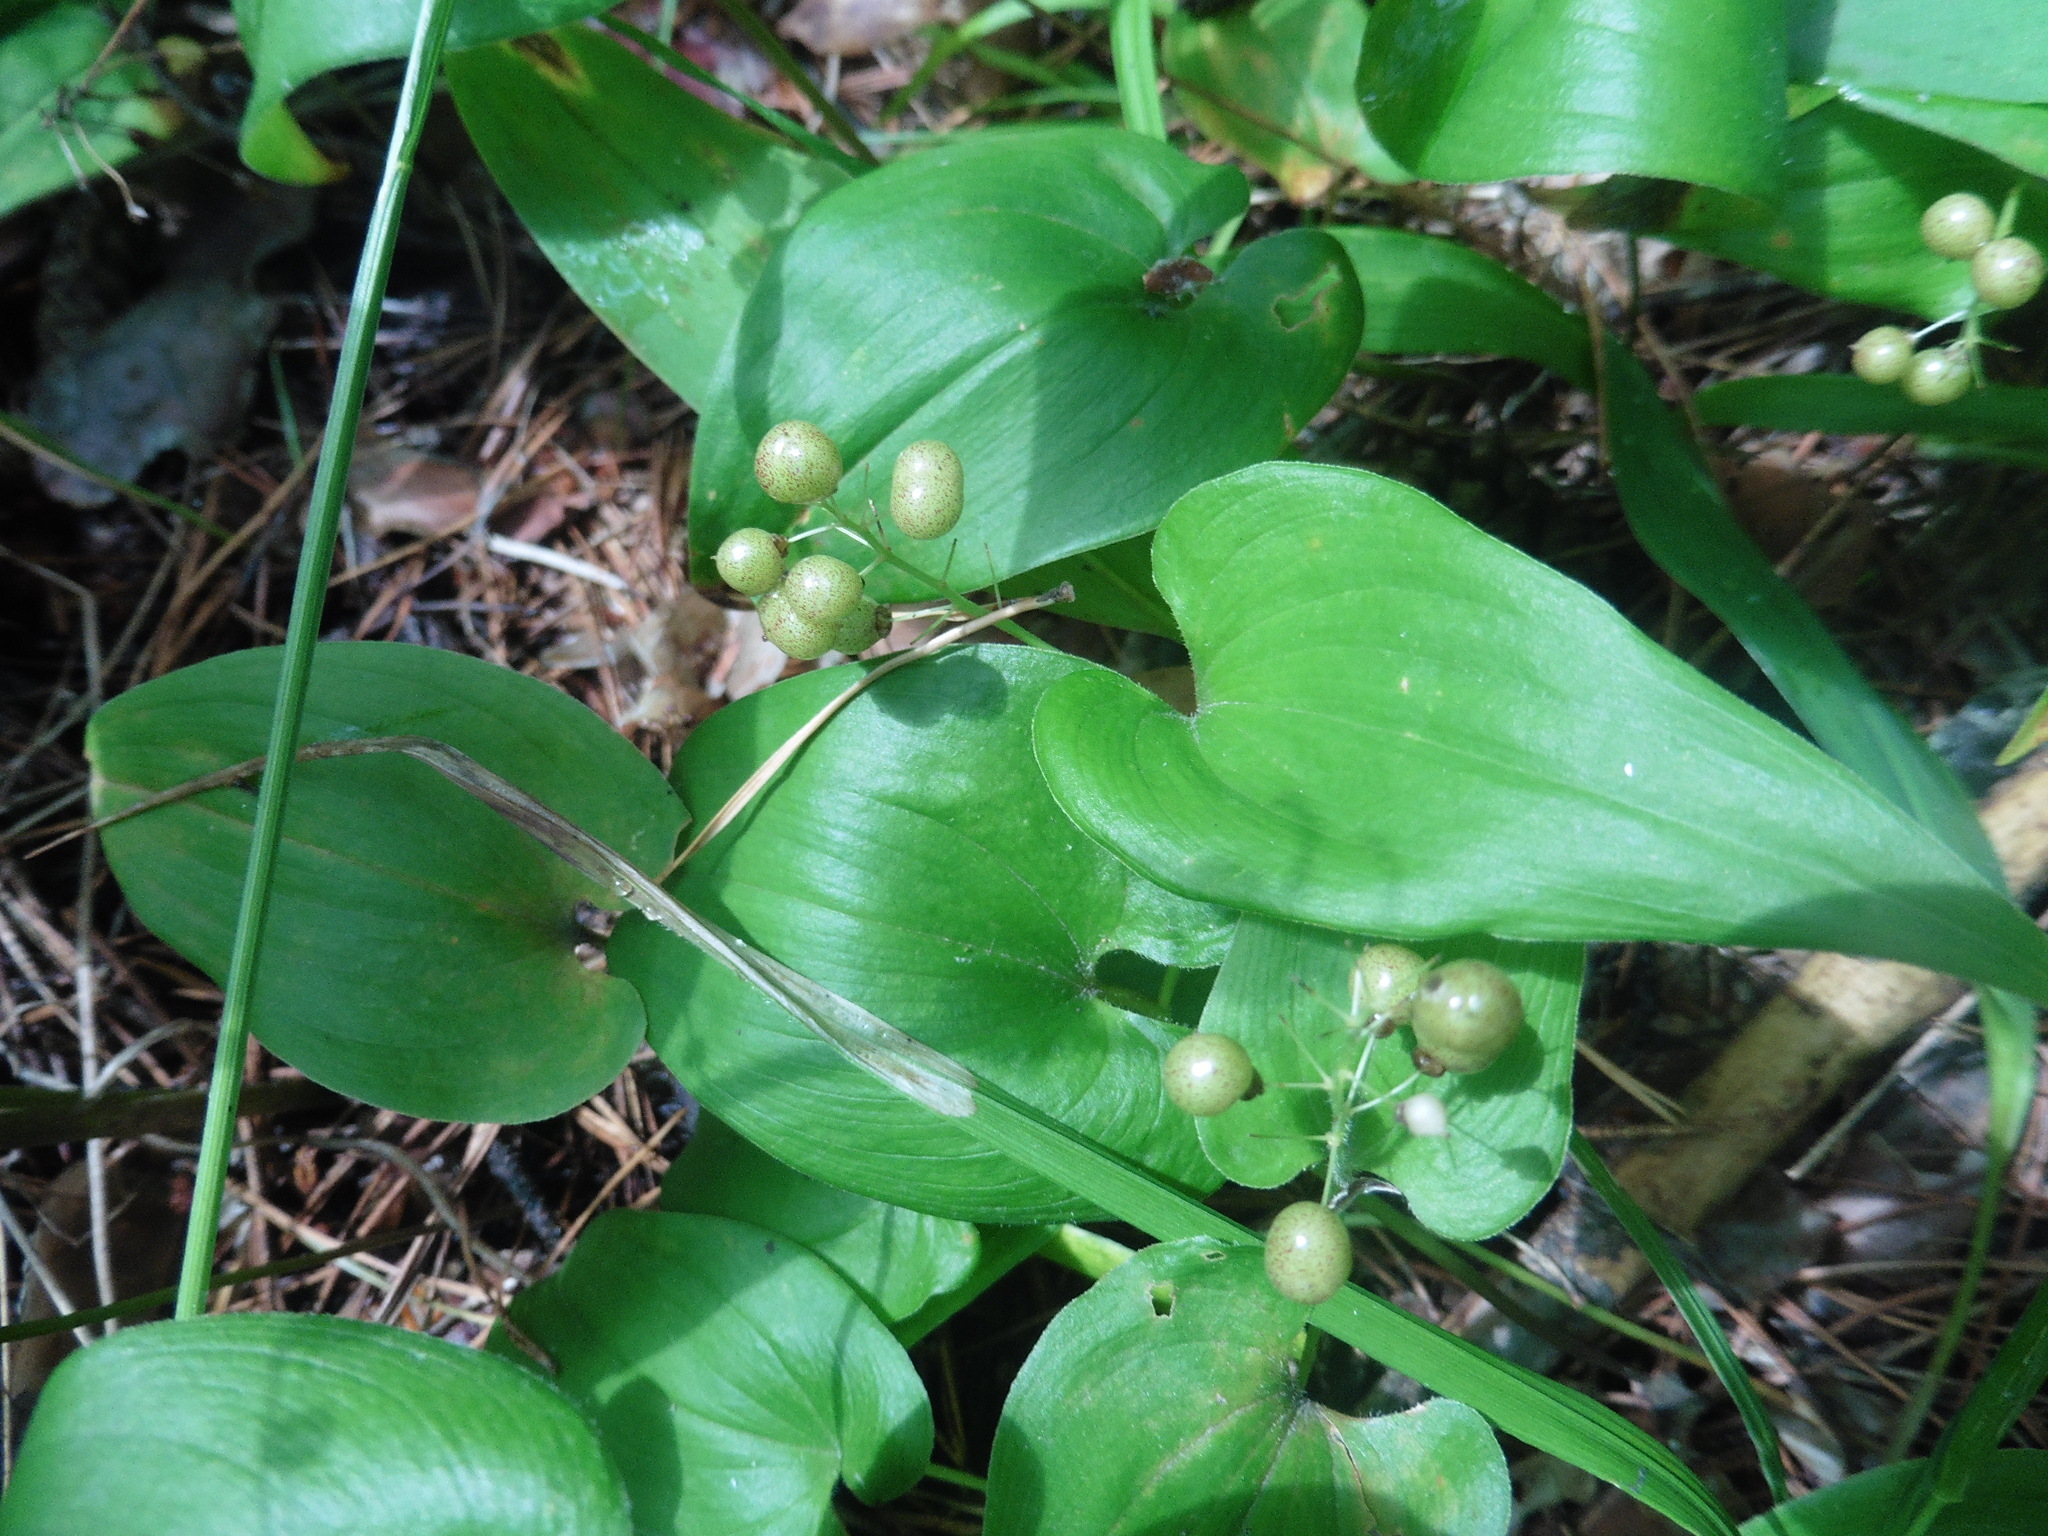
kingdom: Plantae
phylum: Tracheophyta
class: Liliopsida
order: Asparagales
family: Asparagaceae
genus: Maianthemum
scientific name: Maianthemum bifolium
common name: May lily
